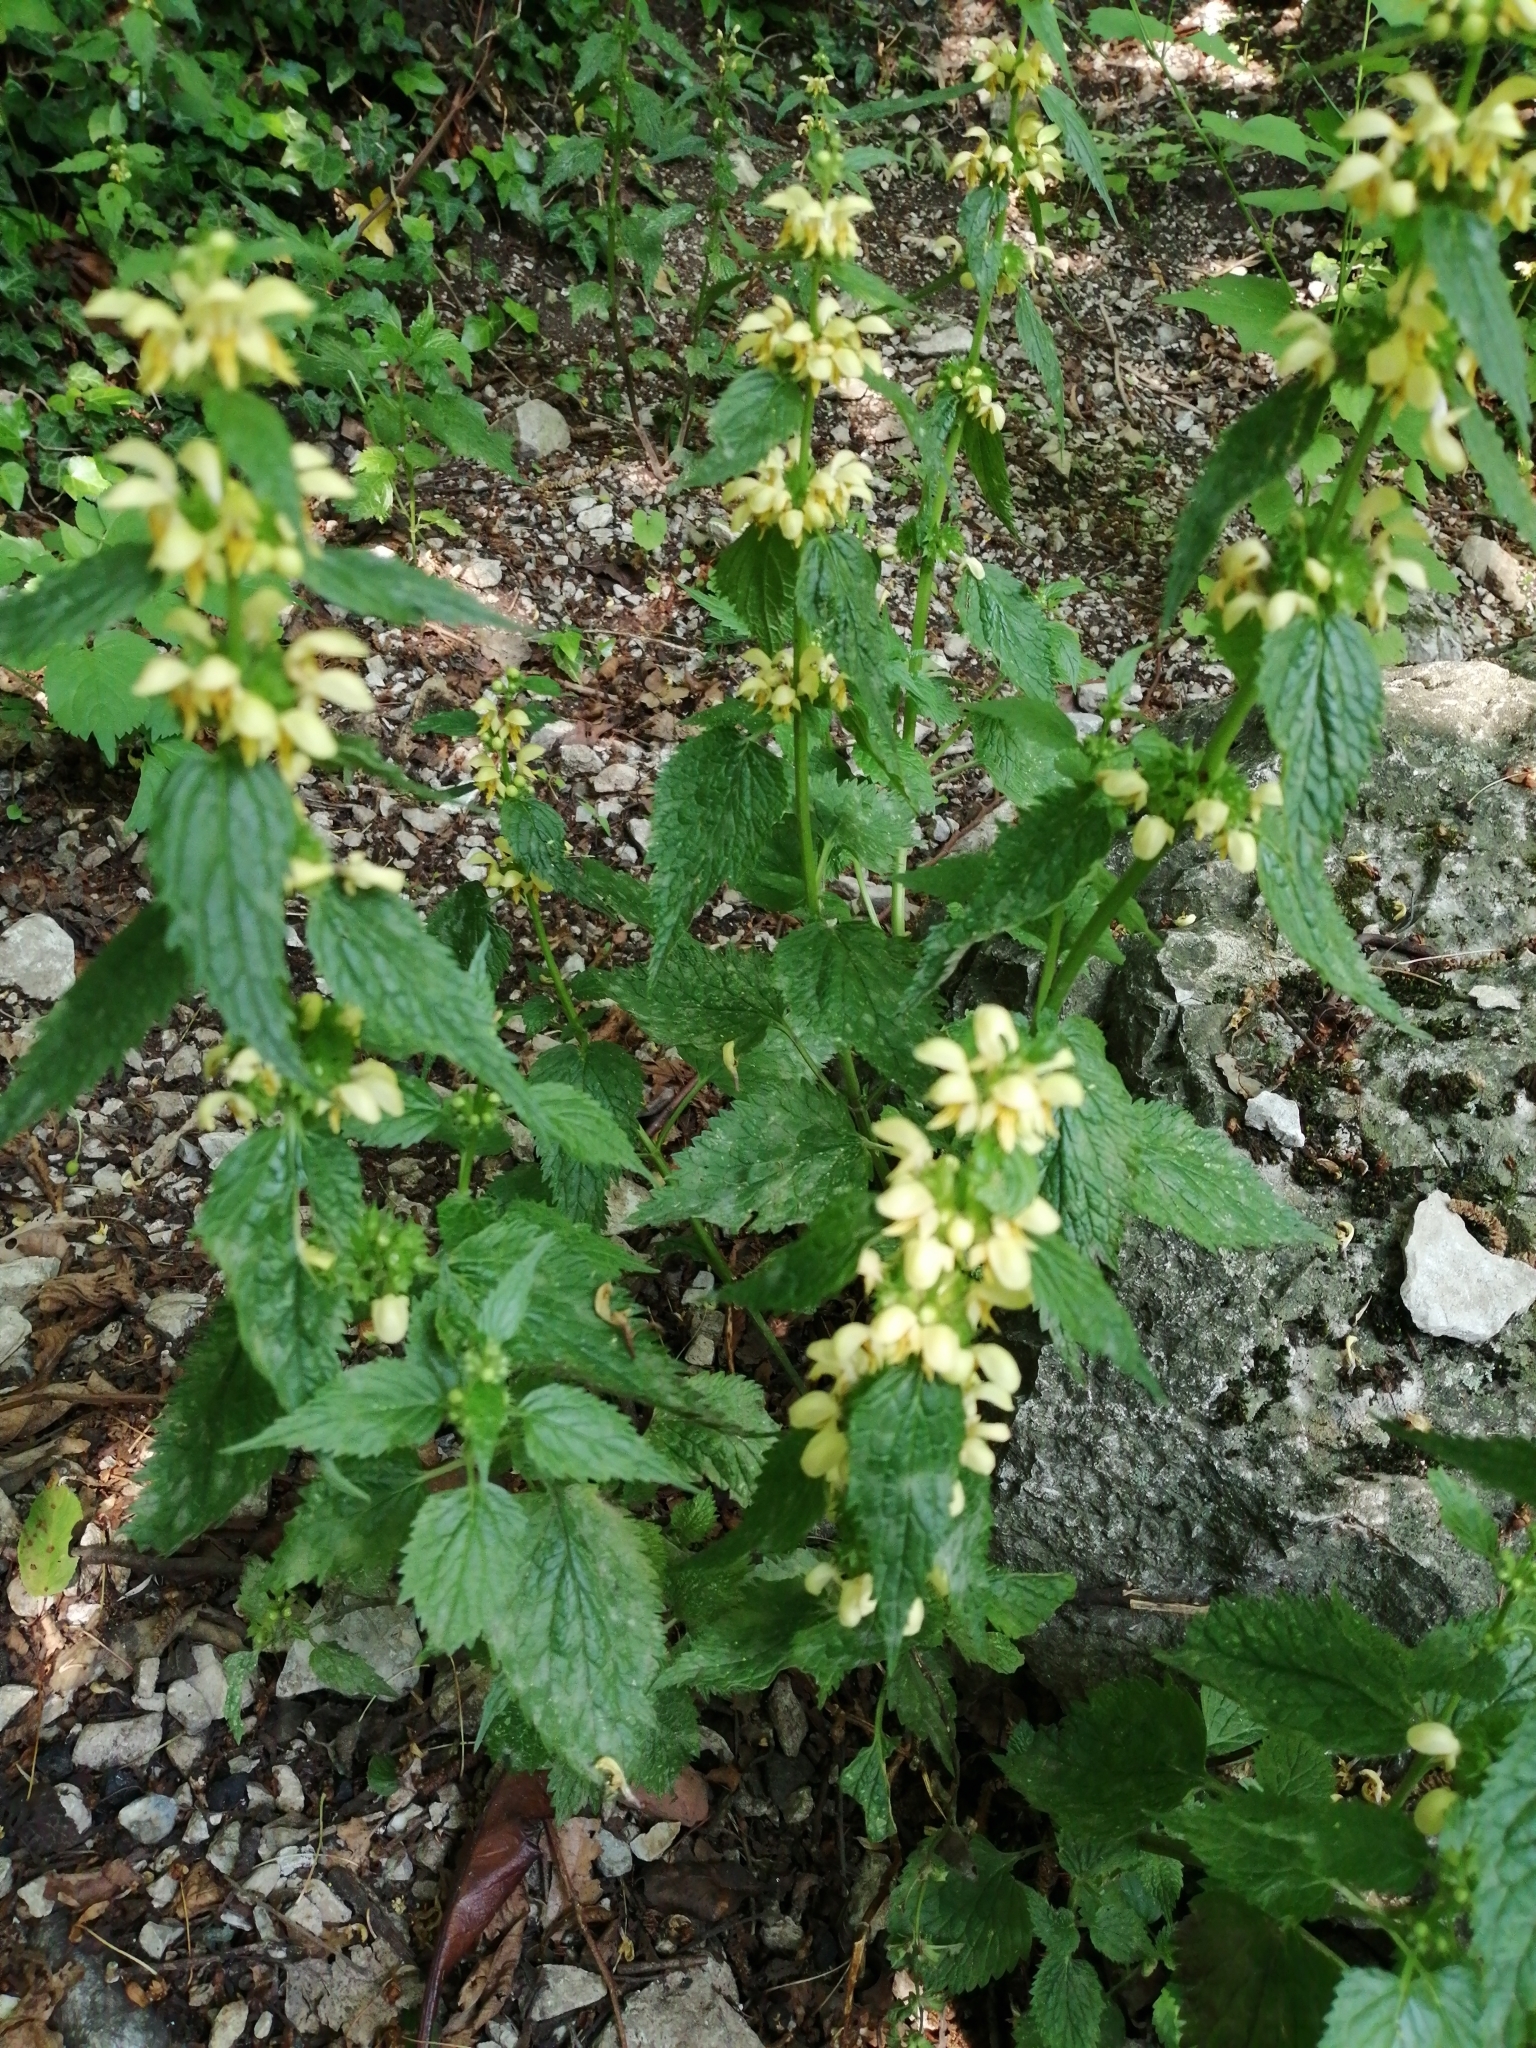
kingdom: Plantae
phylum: Tracheophyta
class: Magnoliopsida
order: Lamiales
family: Lamiaceae
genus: Lamium
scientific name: Lamium galeobdolon
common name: Yellow archangel
